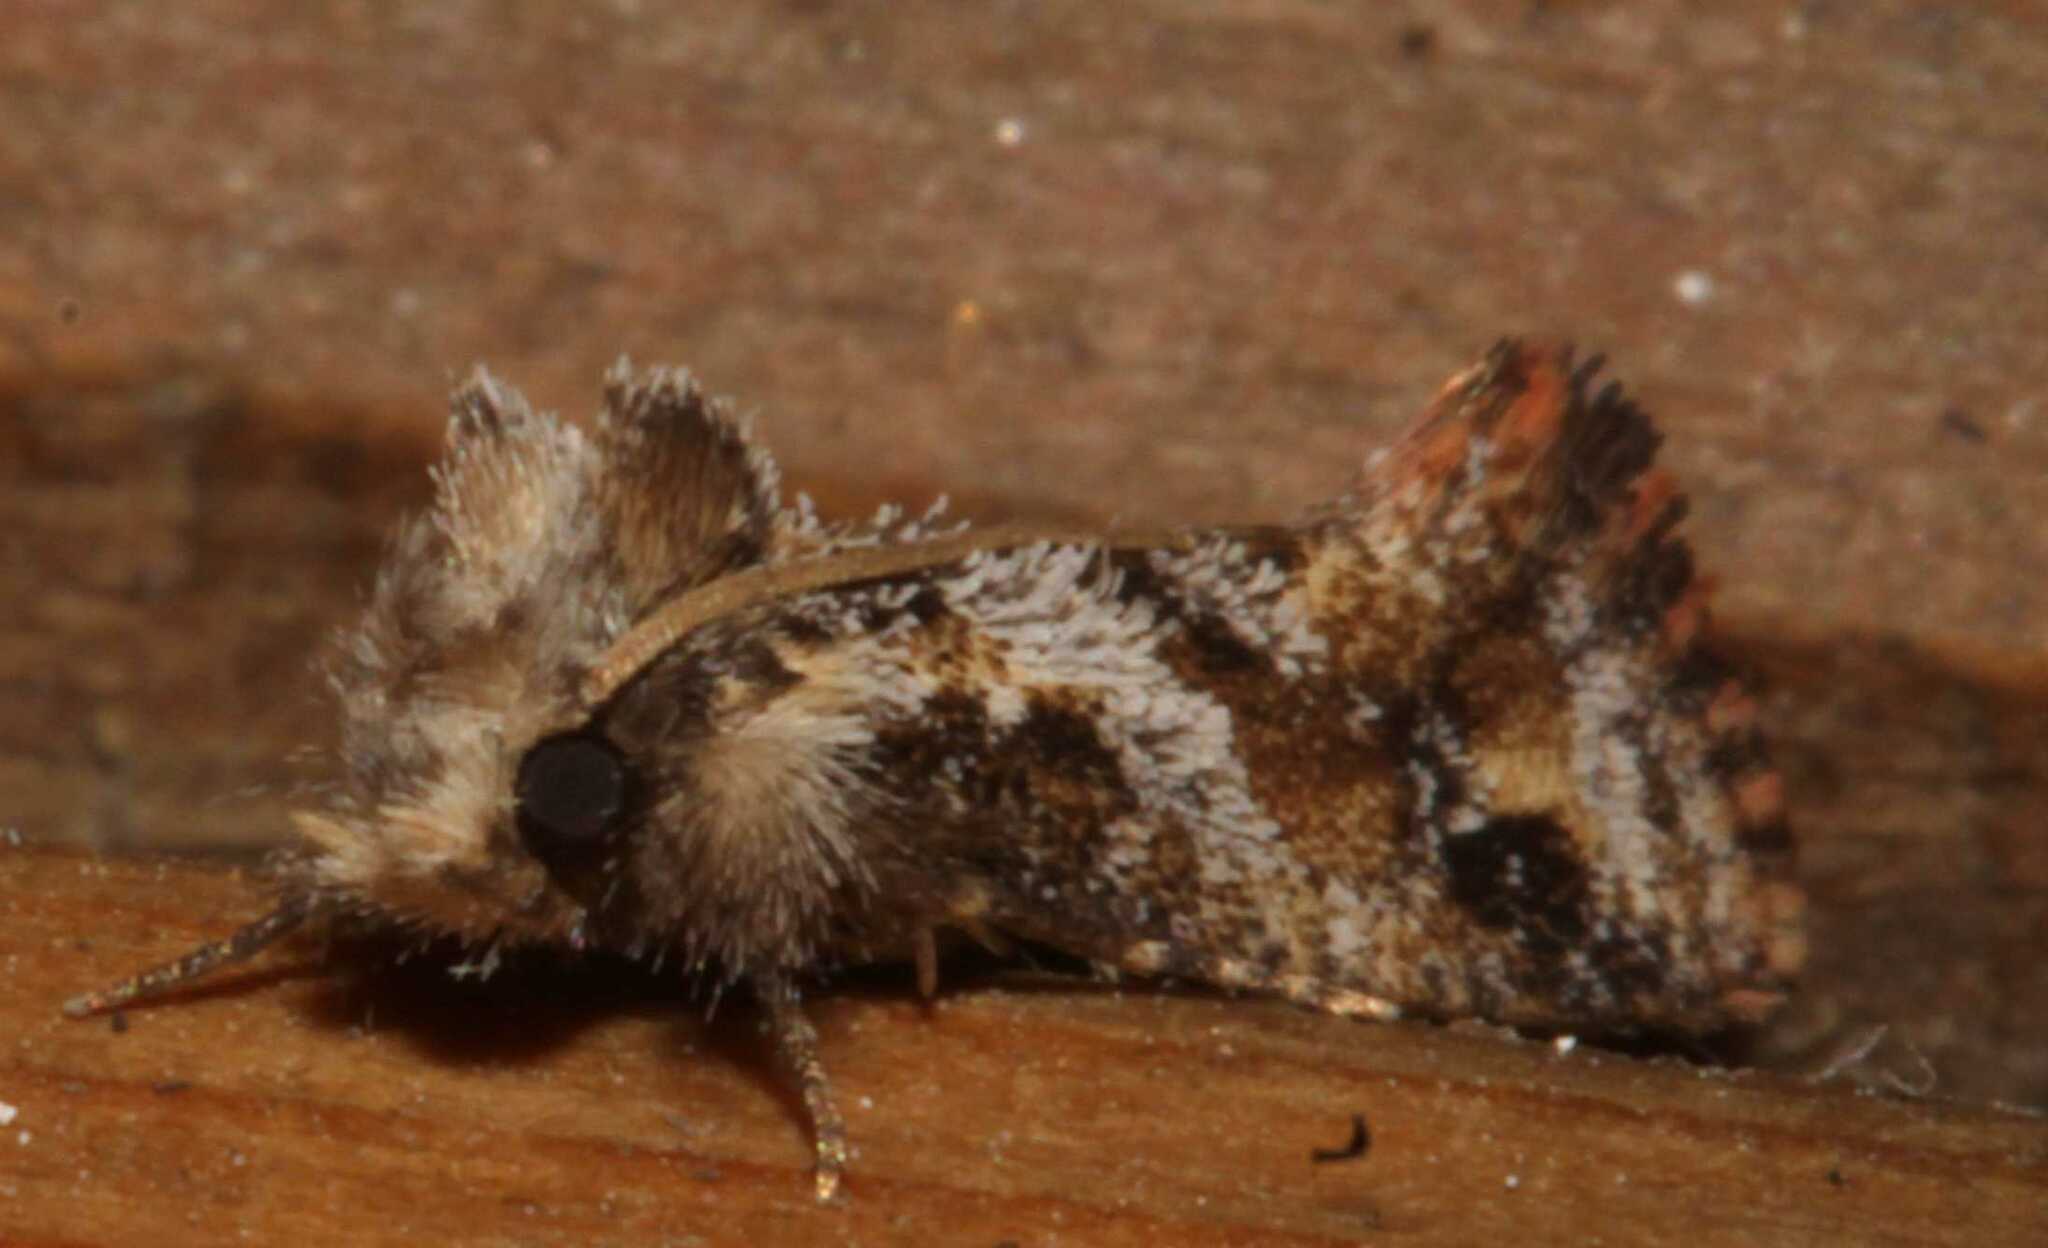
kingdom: Animalia
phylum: Arthropoda
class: Insecta
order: Lepidoptera
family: Tineidae
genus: Acrolophus
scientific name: Acrolophus
